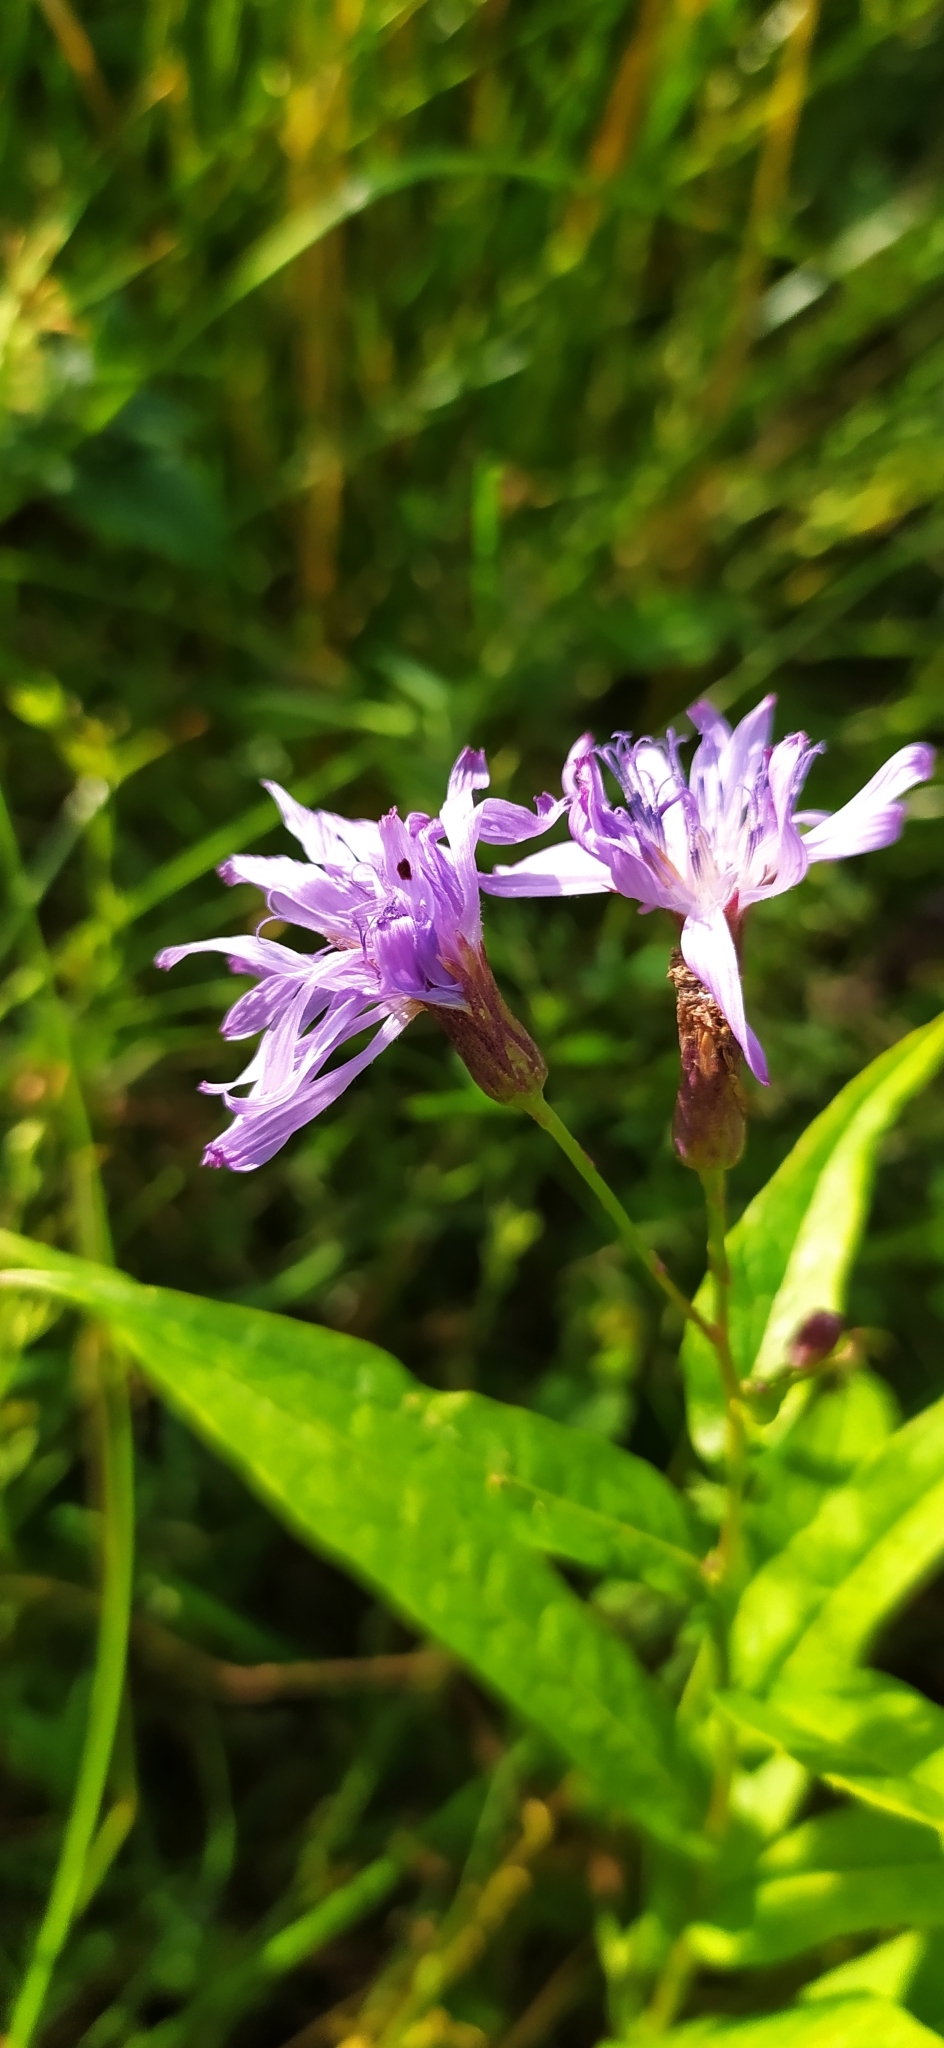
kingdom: Plantae
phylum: Tracheophyta
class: Magnoliopsida
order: Asterales
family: Asteraceae
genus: Lactuca
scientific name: Lactuca sibirica
